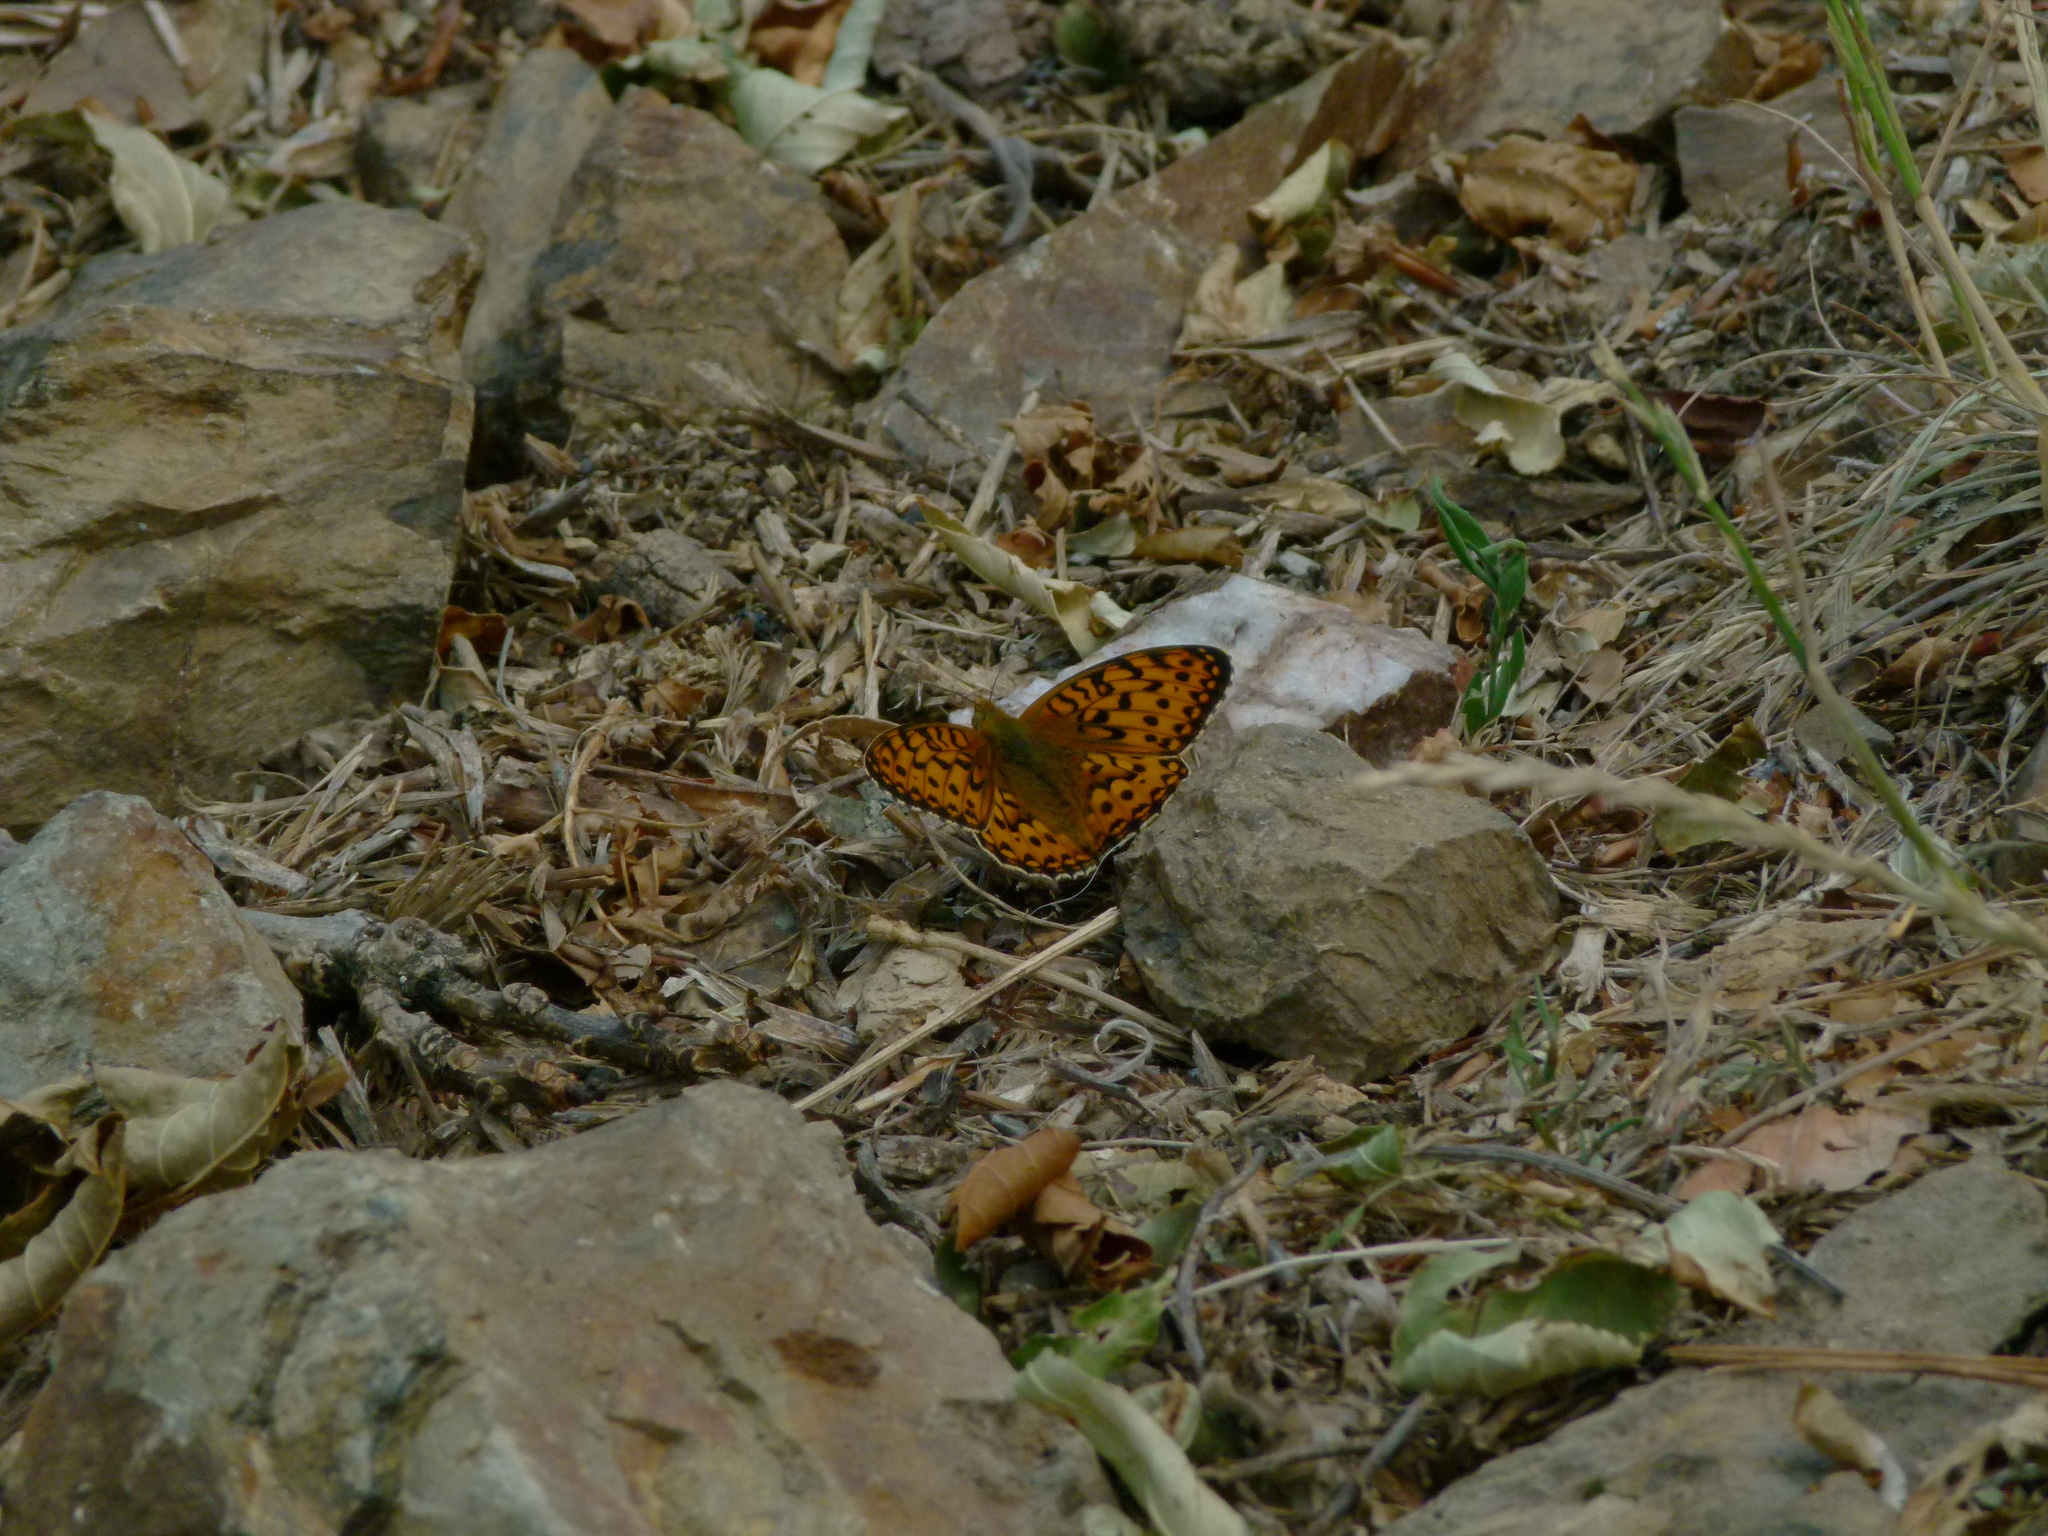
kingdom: Animalia
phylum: Arthropoda
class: Insecta
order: Lepidoptera
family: Nymphalidae
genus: Speyeria
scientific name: Speyeria aglaja
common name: Dark green fritillary
